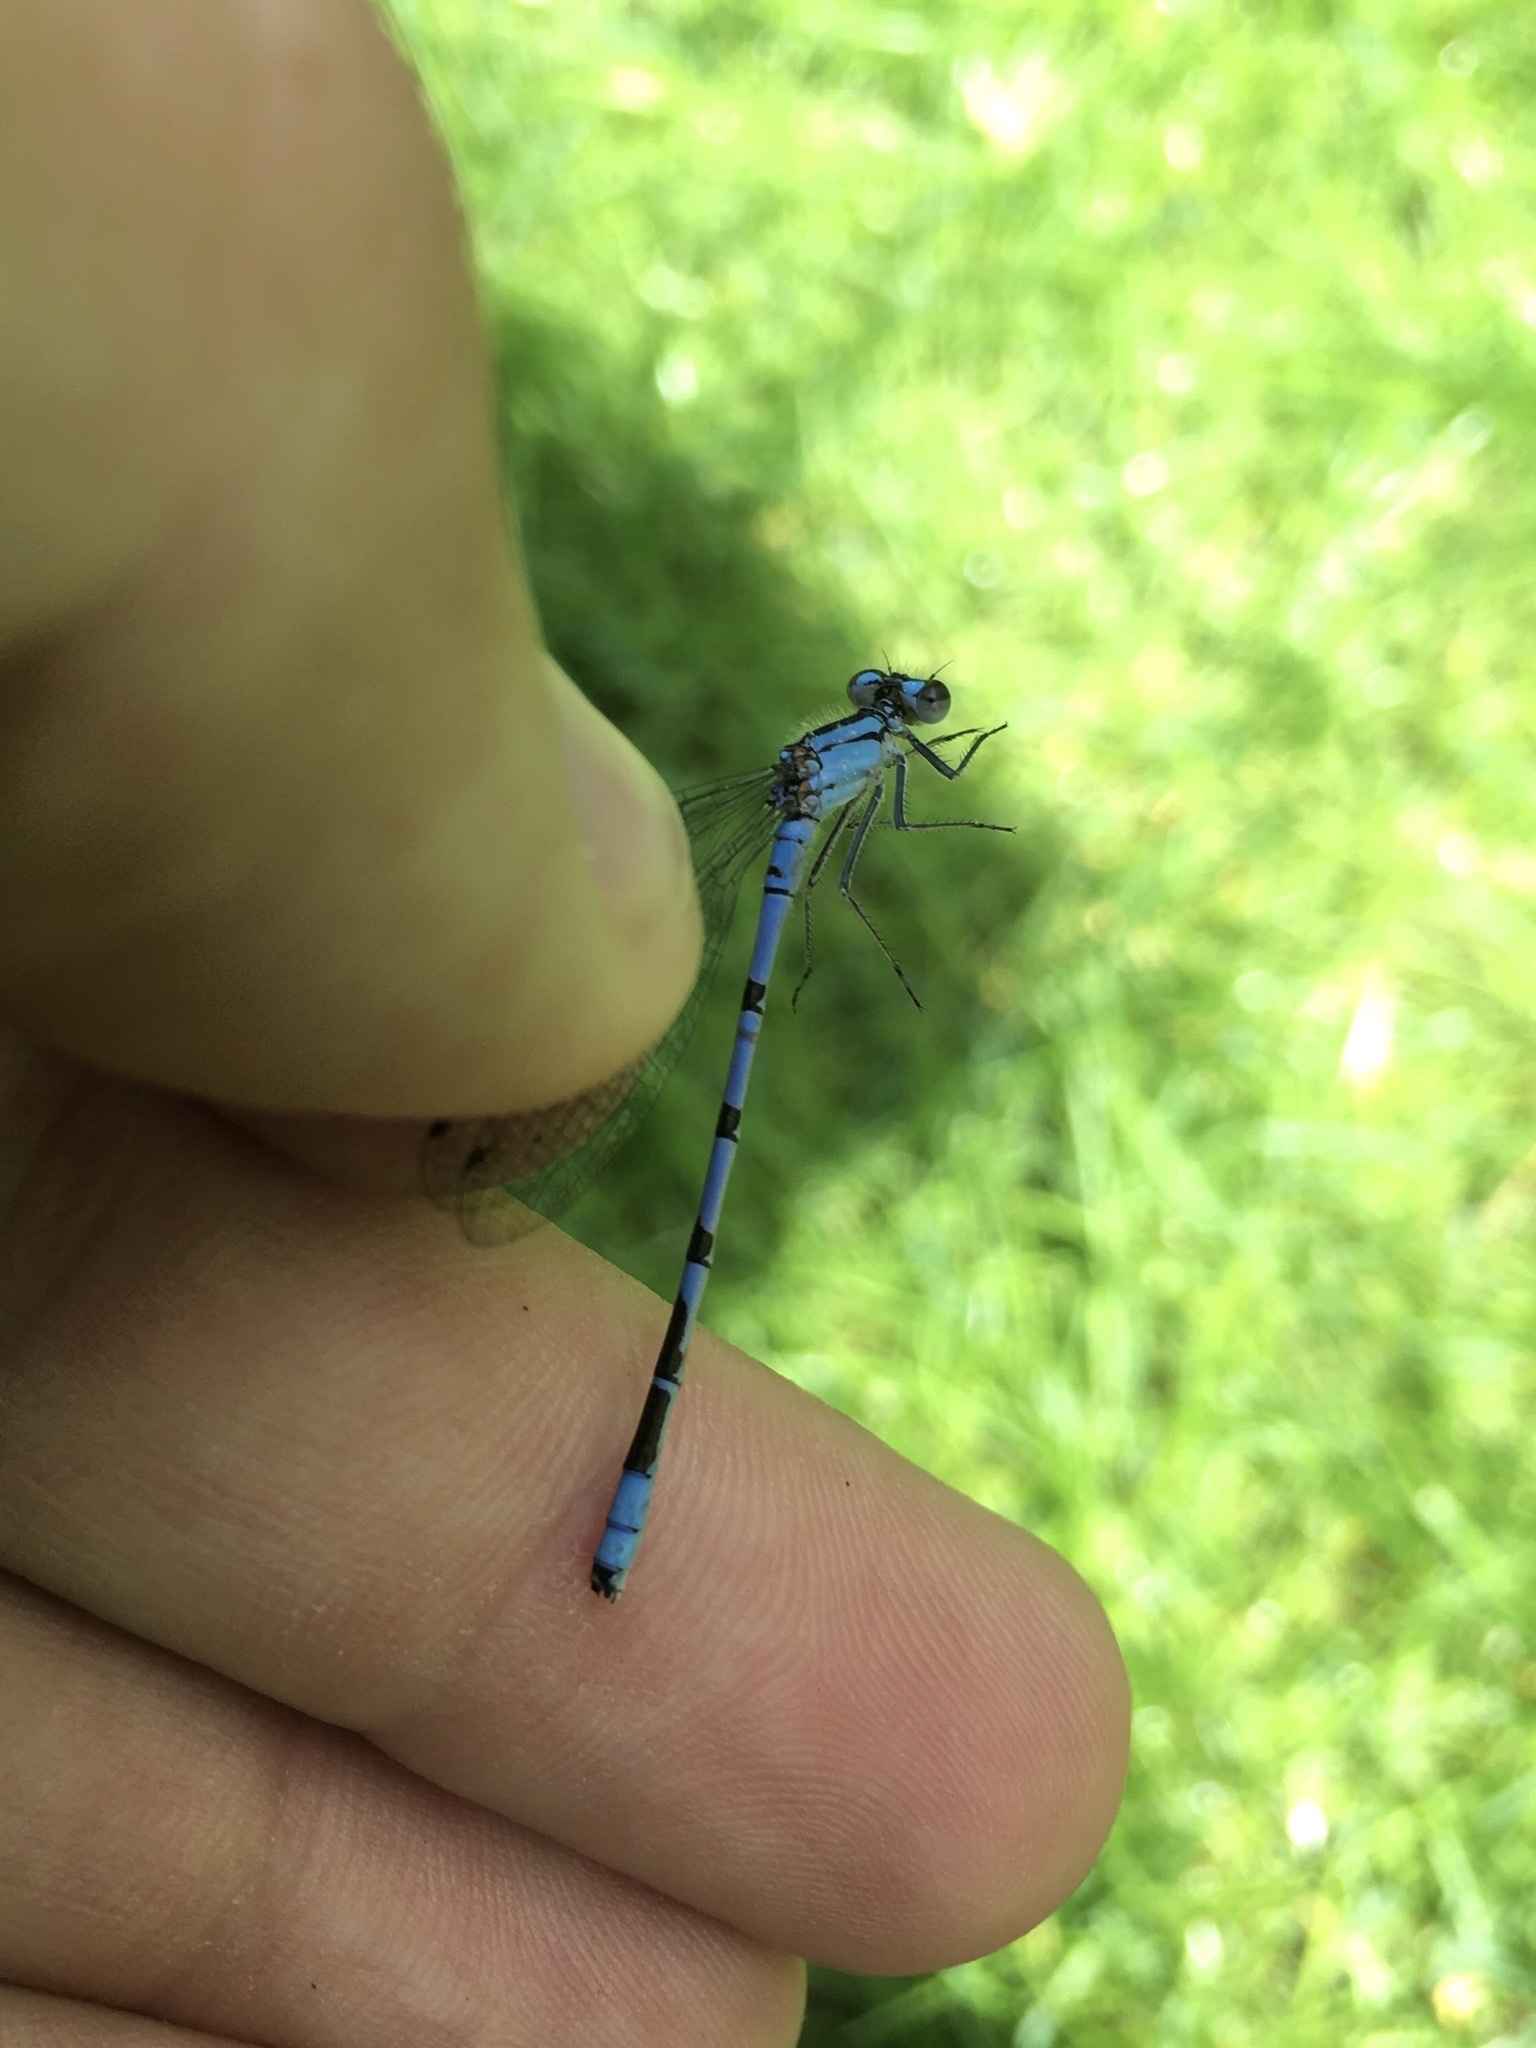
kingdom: Animalia
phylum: Arthropoda
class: Insecta
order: Odonata
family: Coenagrionidae
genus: Enallagma
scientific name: Enallagma annexum
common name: Northern bluet
